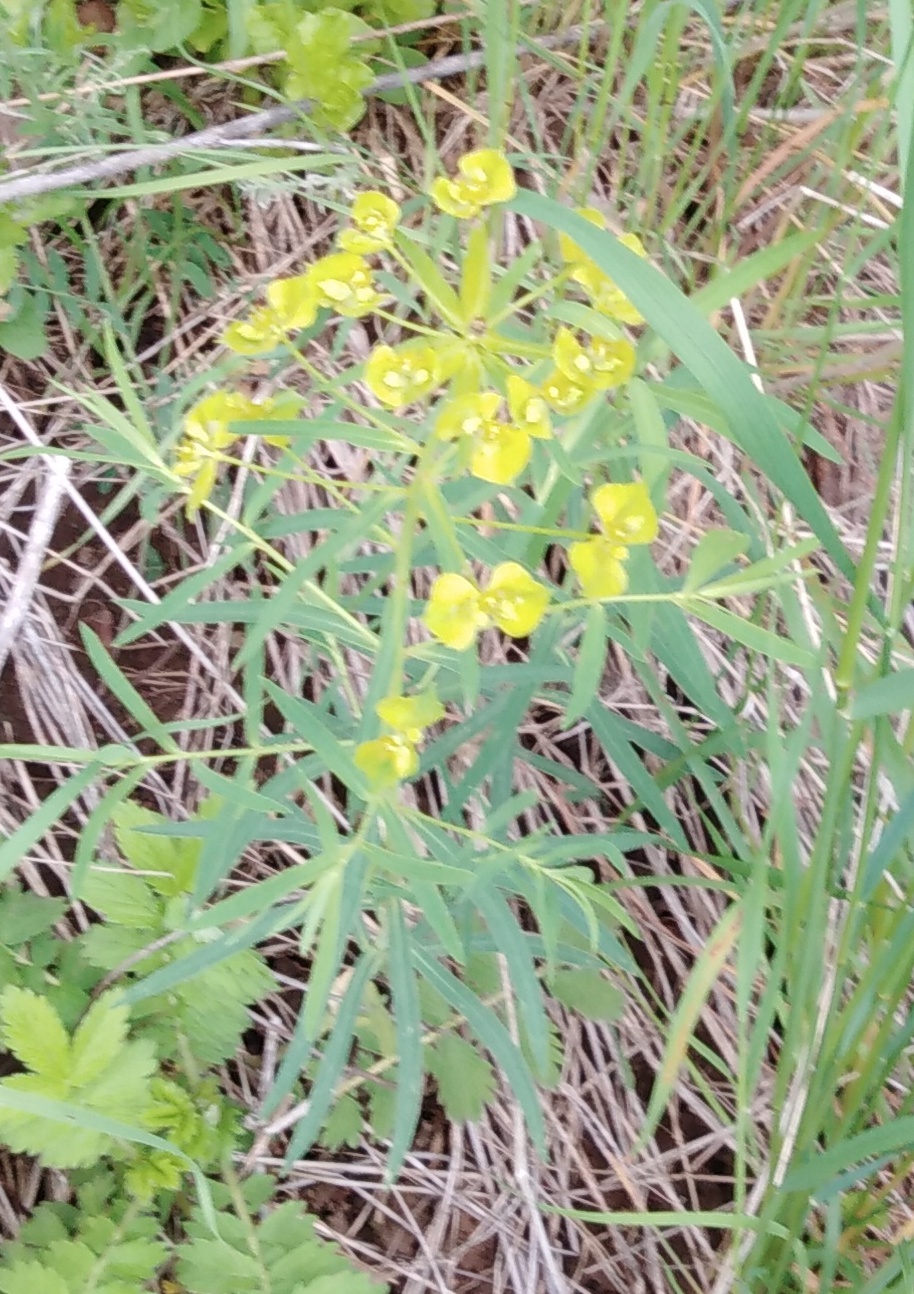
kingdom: Plantae
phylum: Tracheophyta
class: Magnoliopsida
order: Malpighiales
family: Euphorbiaceae
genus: Euphorbia
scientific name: Euphorbia virgata
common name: Leafy spurge
